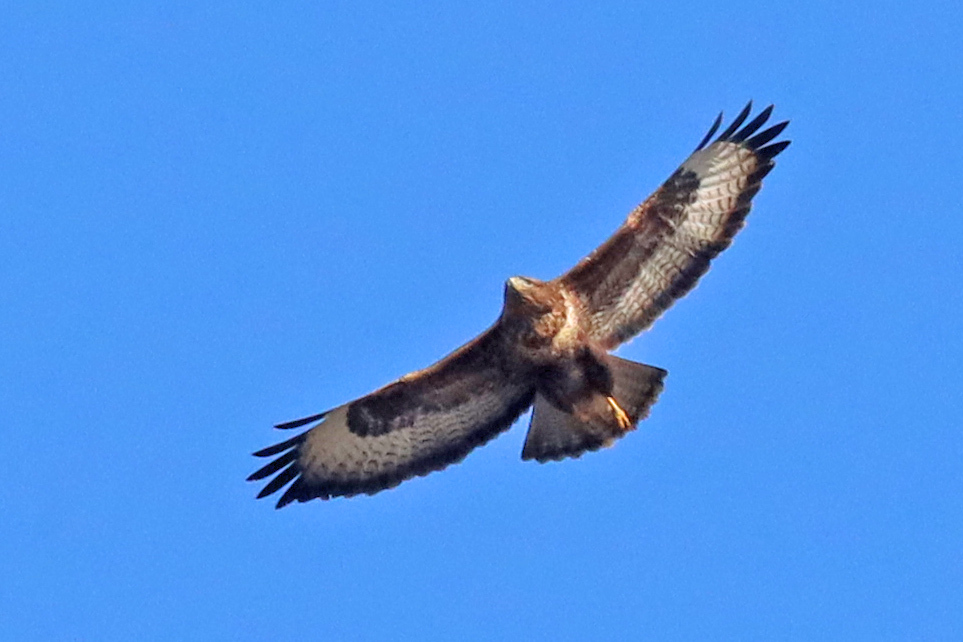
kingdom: Animalia
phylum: Chordata
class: Aves
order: Accipitriformes
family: Accipitridae
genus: Buteo
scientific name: Buteo buteo
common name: Common buzzard
